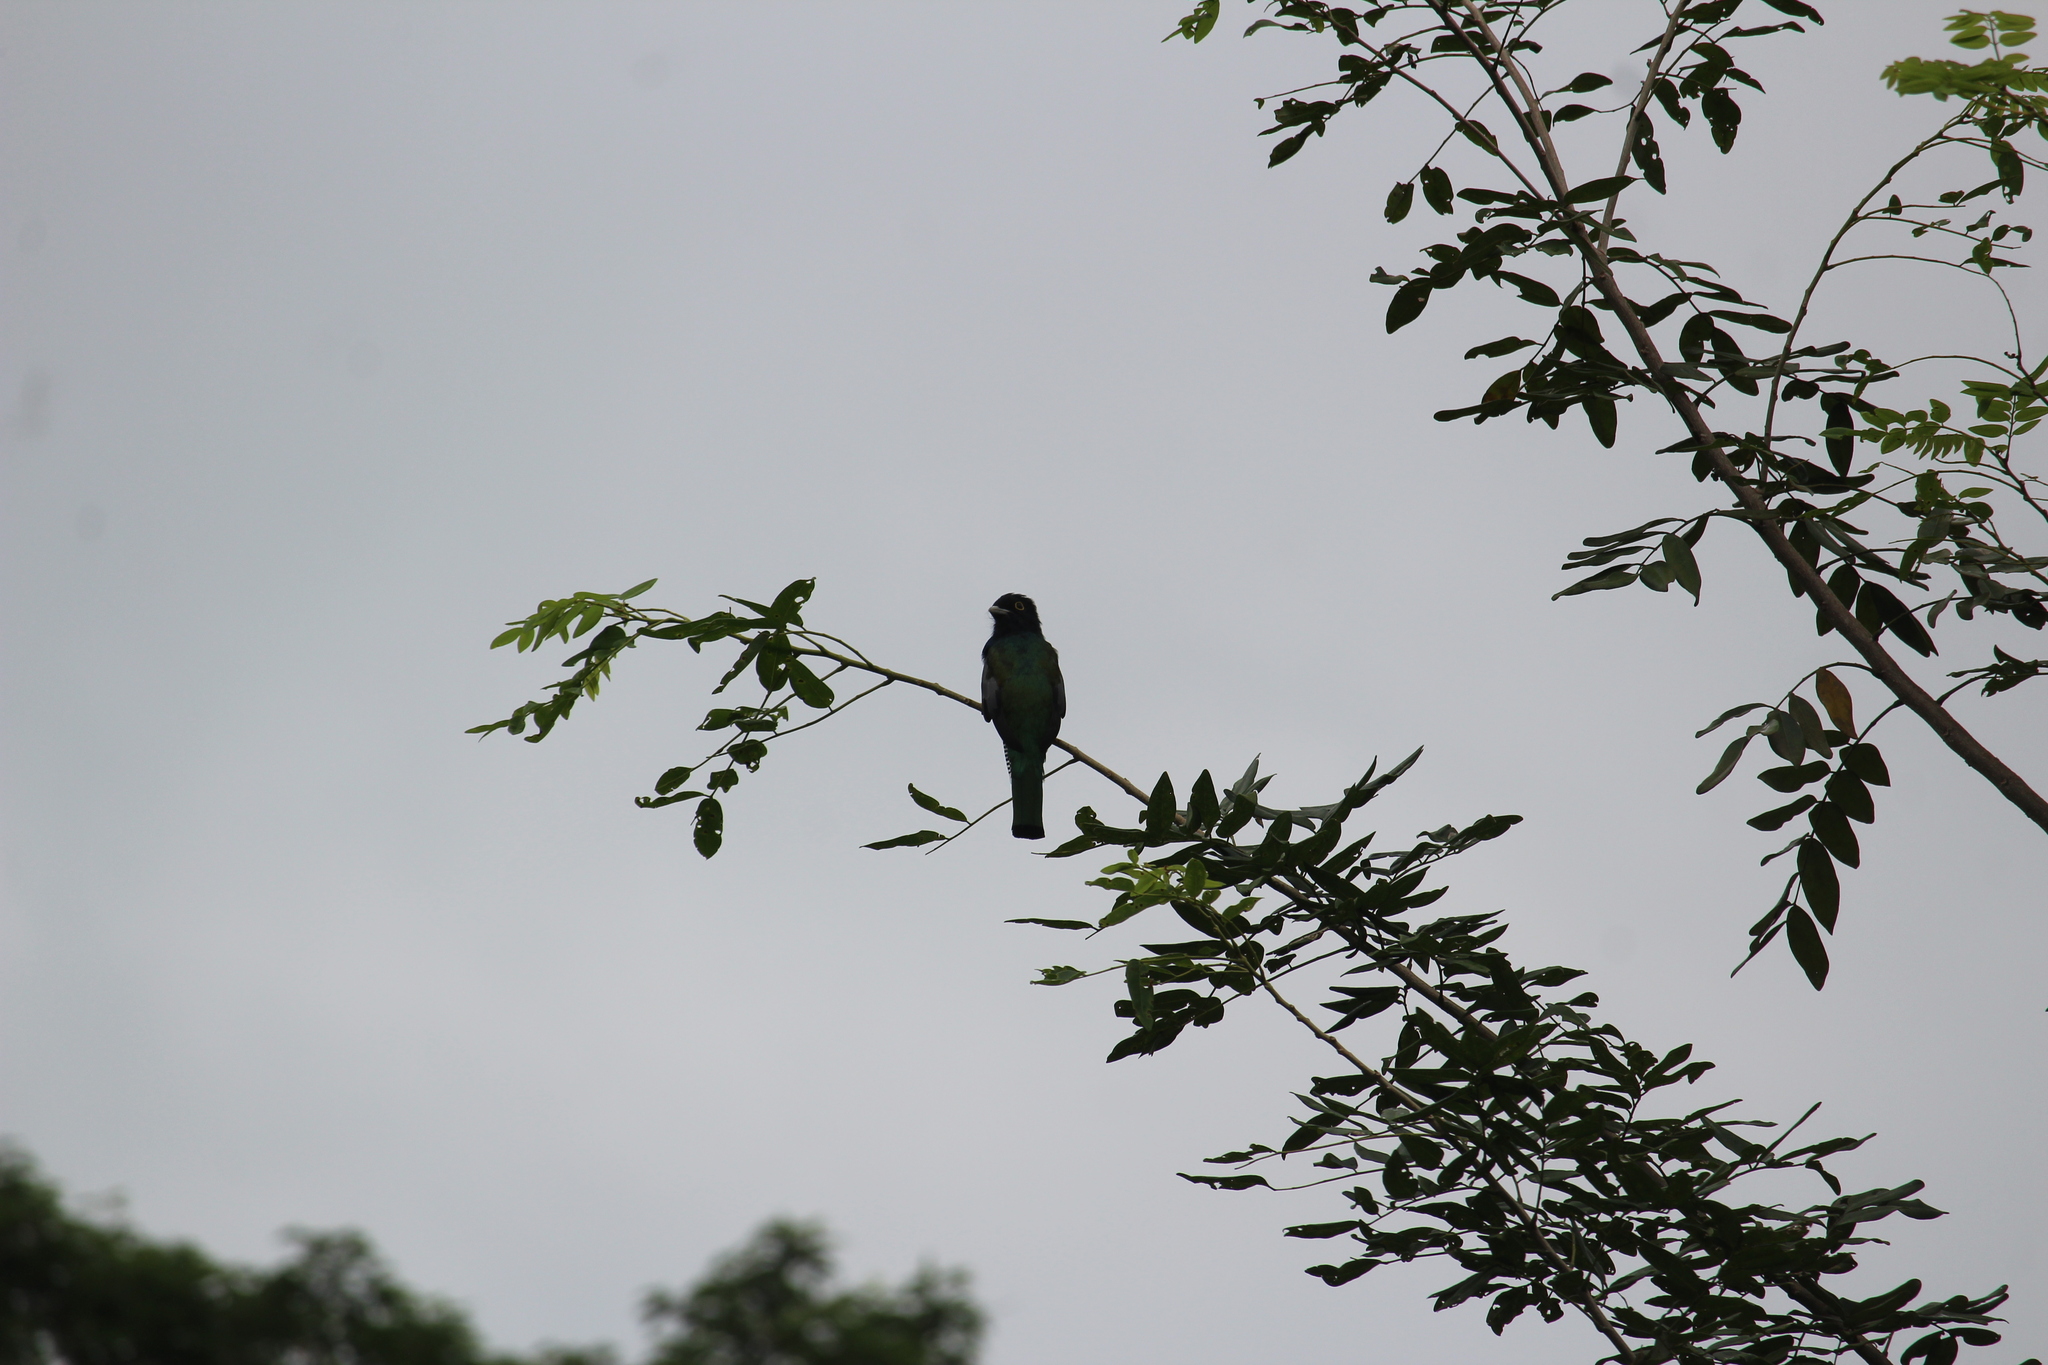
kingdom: Animalia
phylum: Chordata
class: Aves
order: Trogoniformes
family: Trogonidae
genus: Trogon
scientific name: Trogon caligatus
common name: Gartered trogon
